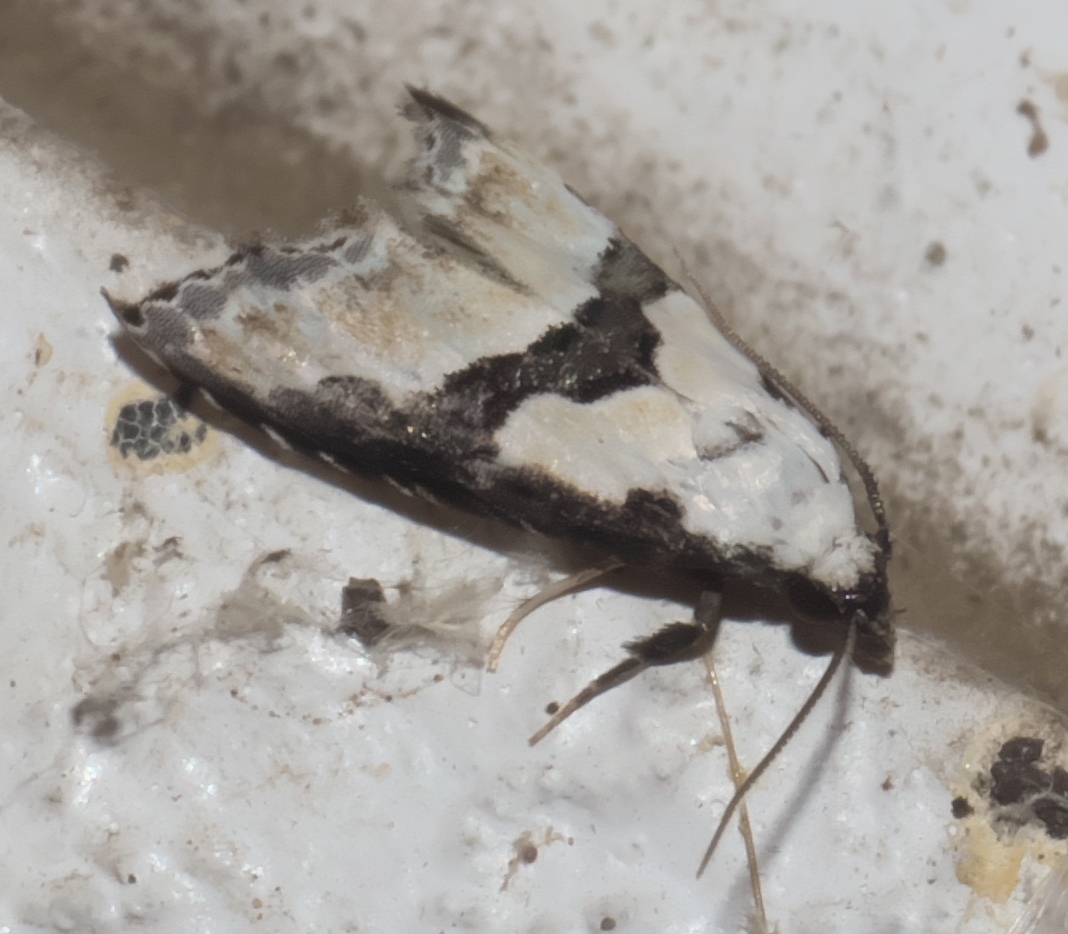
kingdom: Animalia
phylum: Arthropoda
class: Insecta
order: Lepidoptera
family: Noctuidae
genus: Nigetia
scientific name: Nigetia formosalis
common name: Thin-winged owlet
